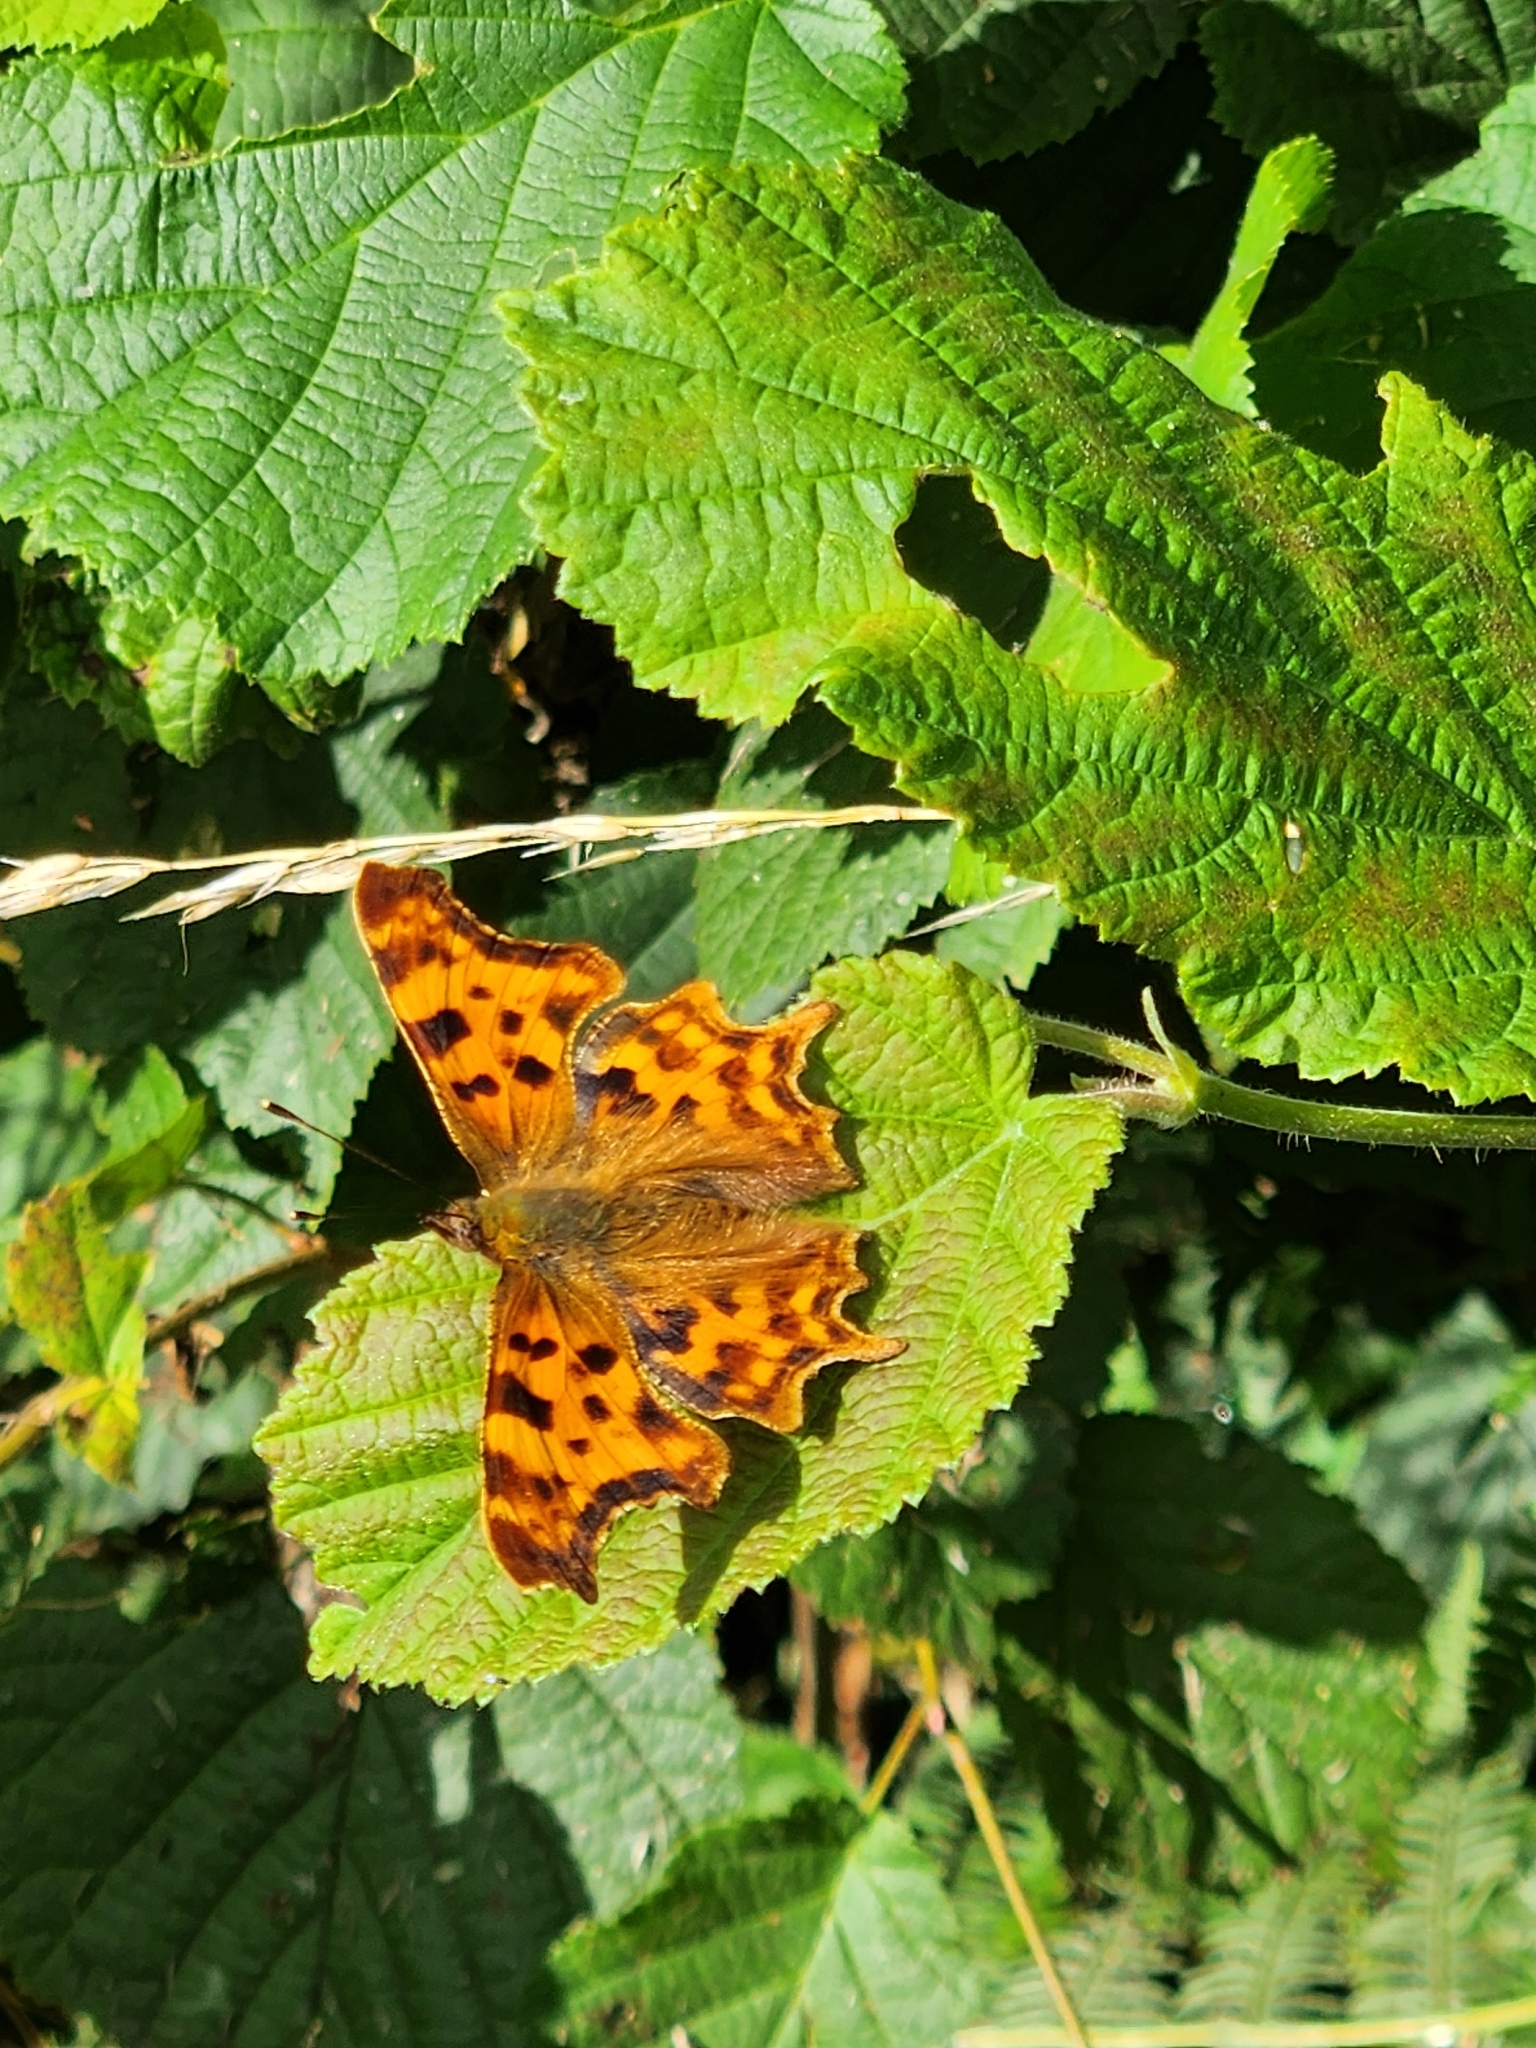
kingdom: Animalia
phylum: Arthropoda
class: Insecta
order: Lepidoptera
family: Nymphalidae
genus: Polygonia
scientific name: Polygonia c-album
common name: Comma
